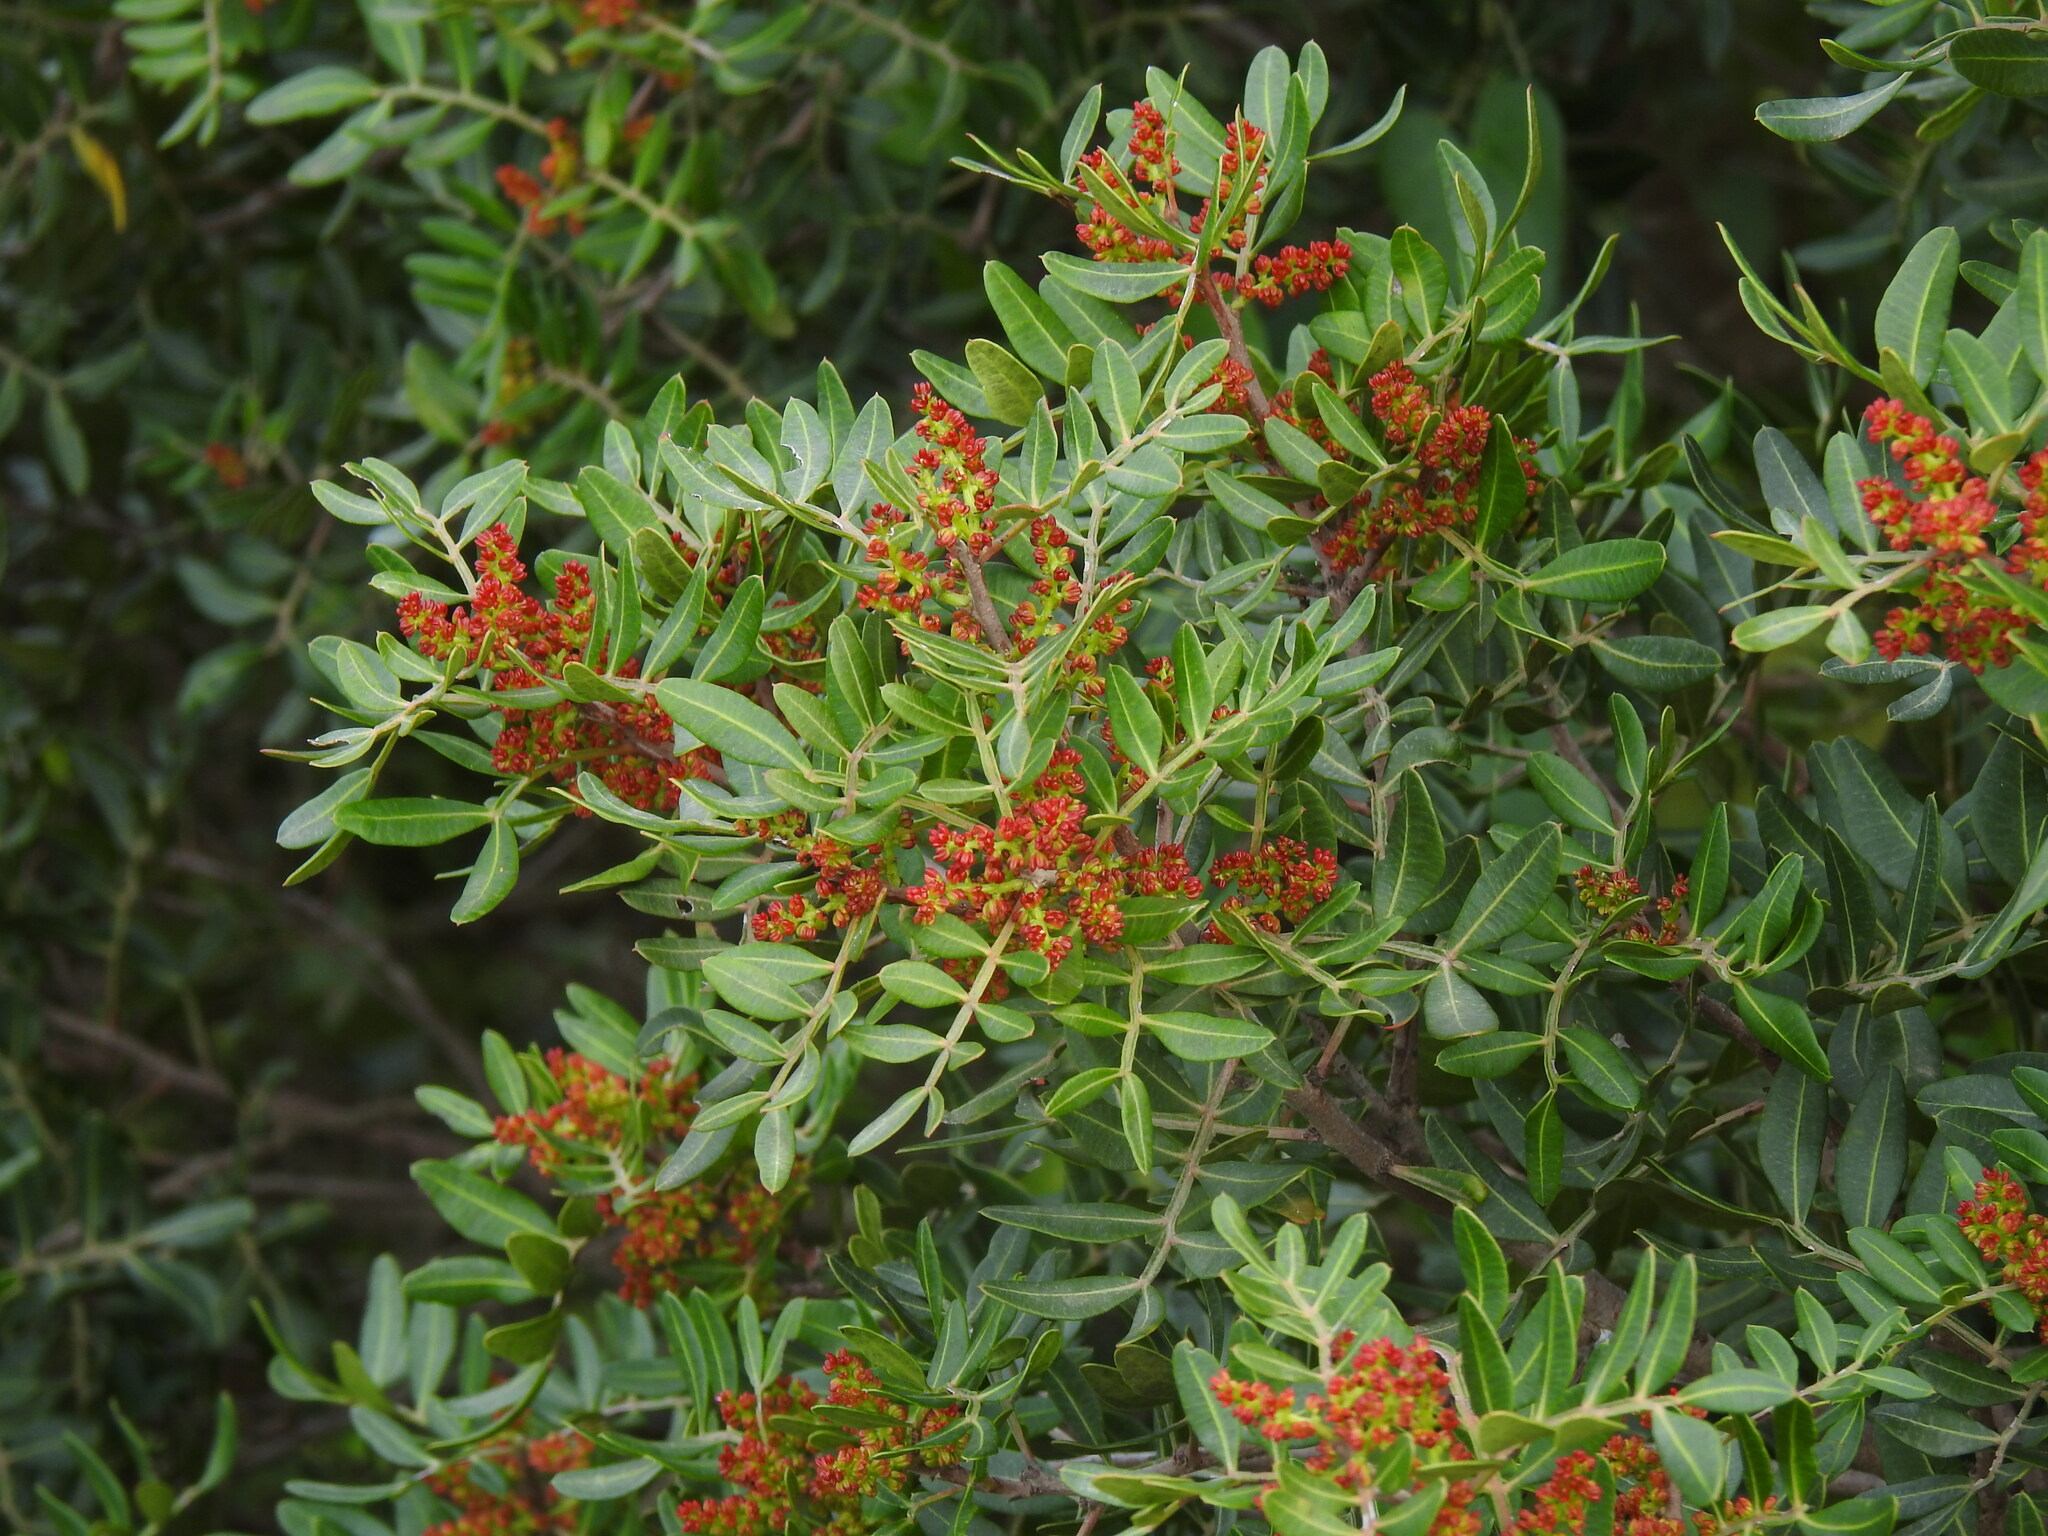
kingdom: Plantae
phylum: Tracheophyta
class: Magnoliopsida
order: Sapindales
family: Anacardiaceae
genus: Pistacia
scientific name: Pistacia lentiscus
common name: Lentisk
